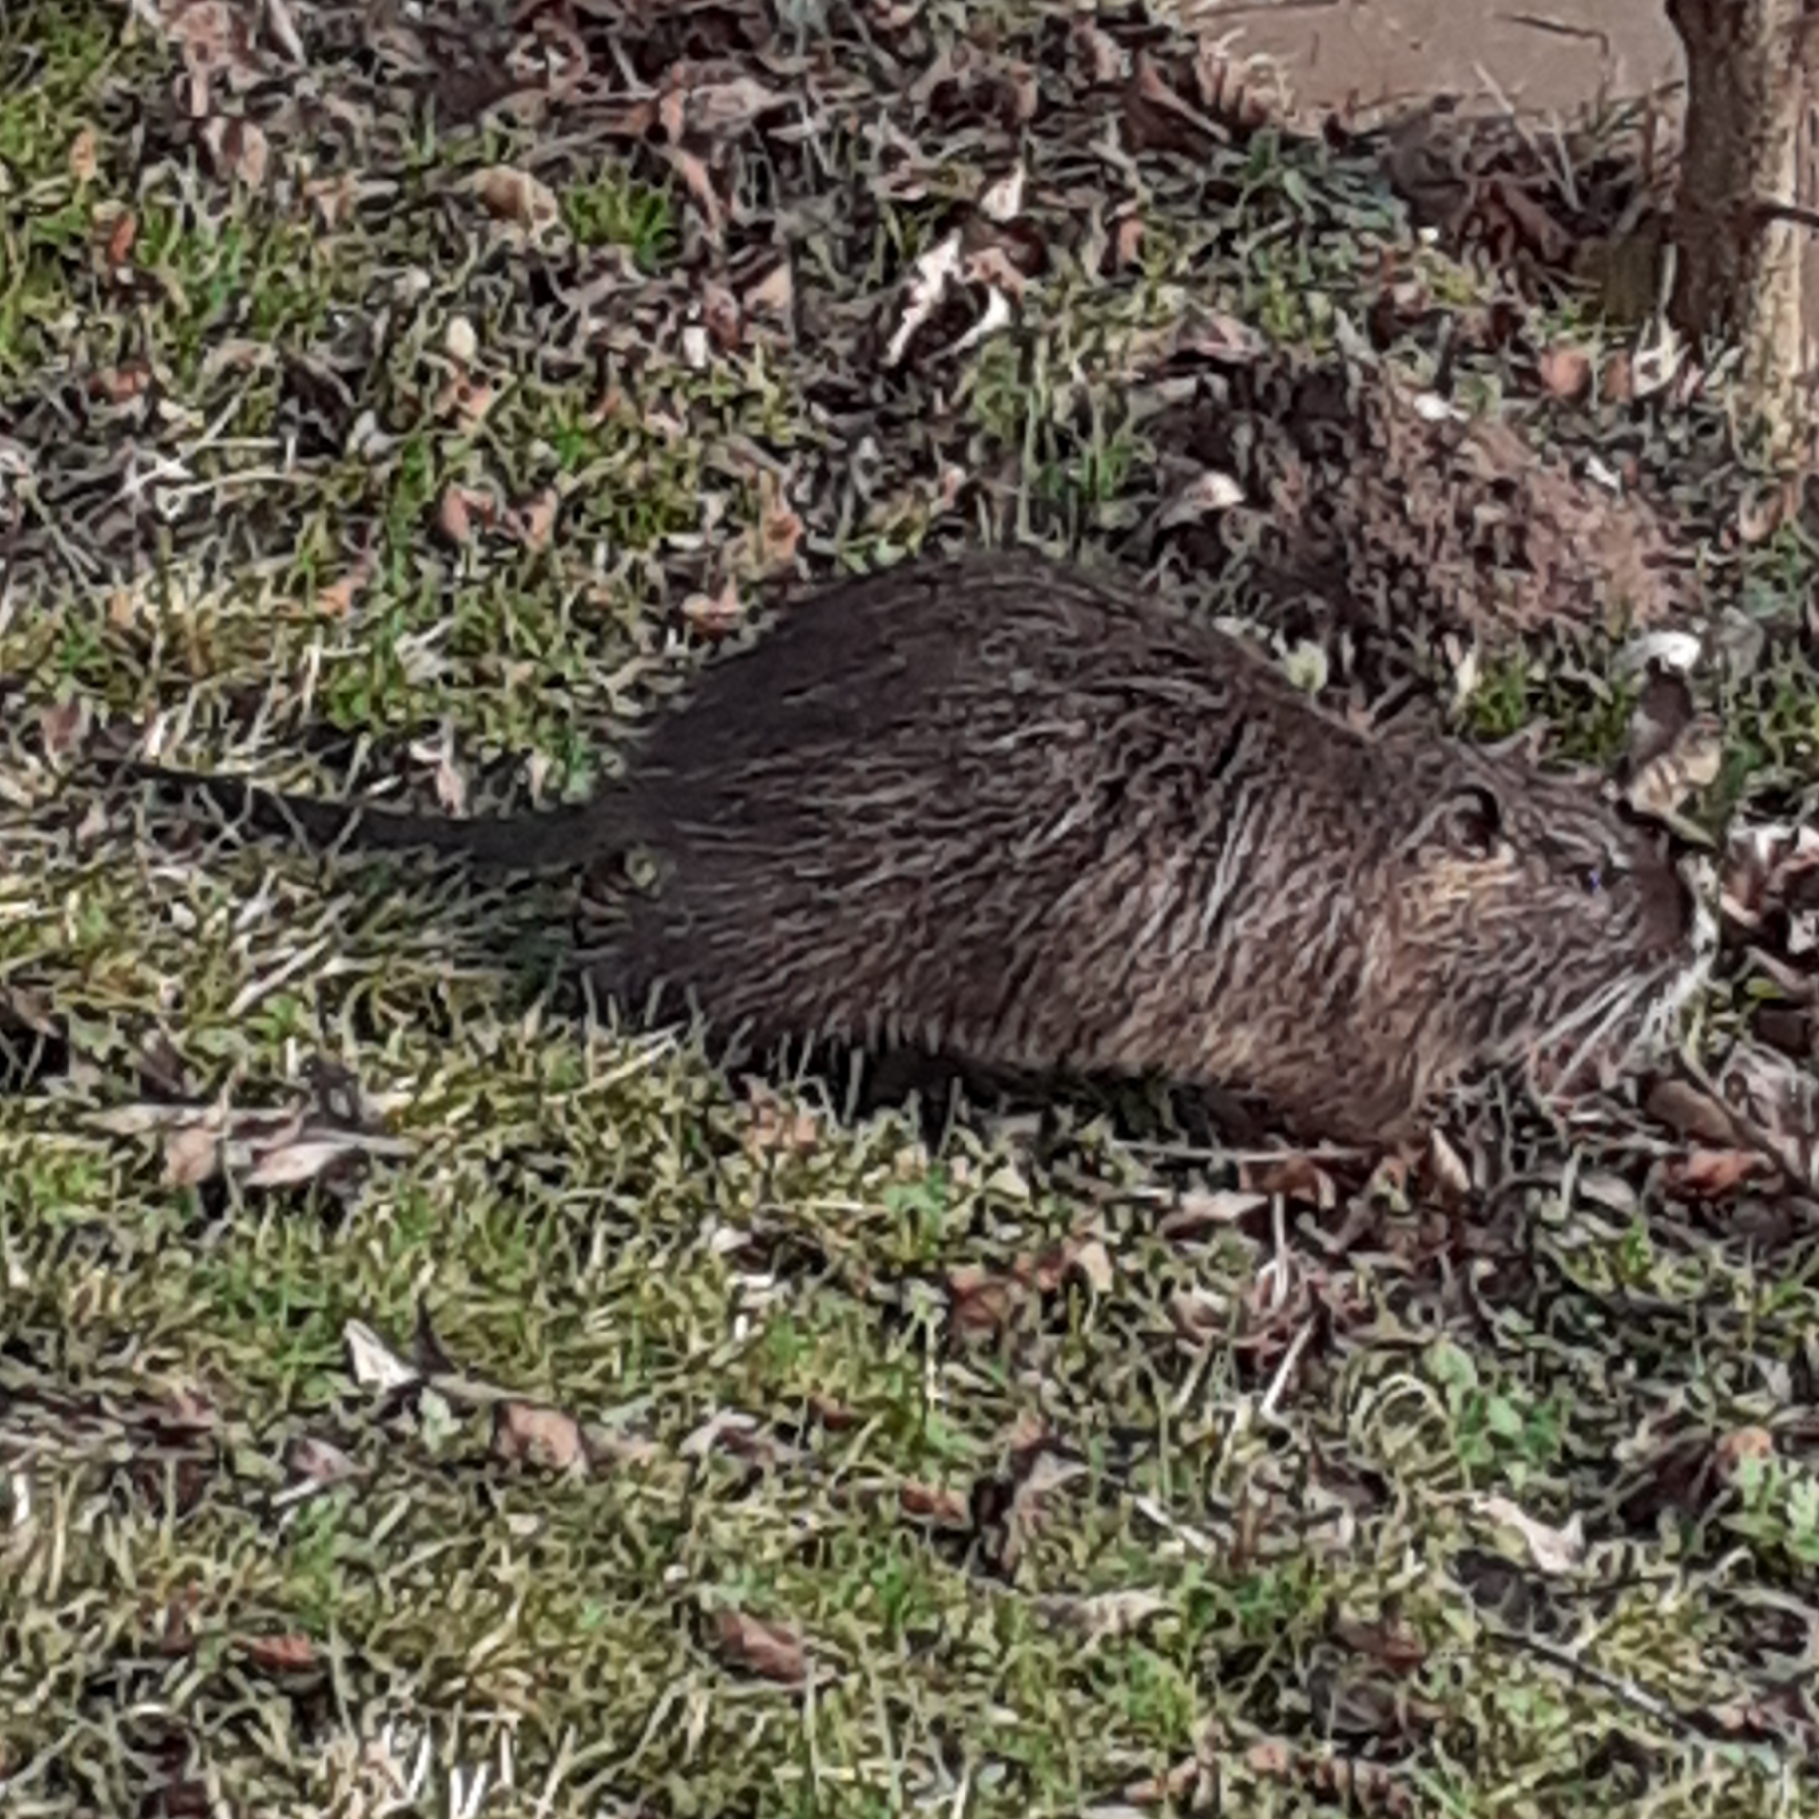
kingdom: Animalia
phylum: Chordata
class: Mammalia
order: Rodentia
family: Myocastoridae
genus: Myocastor
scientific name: Myocastor coypus
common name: Coypu
